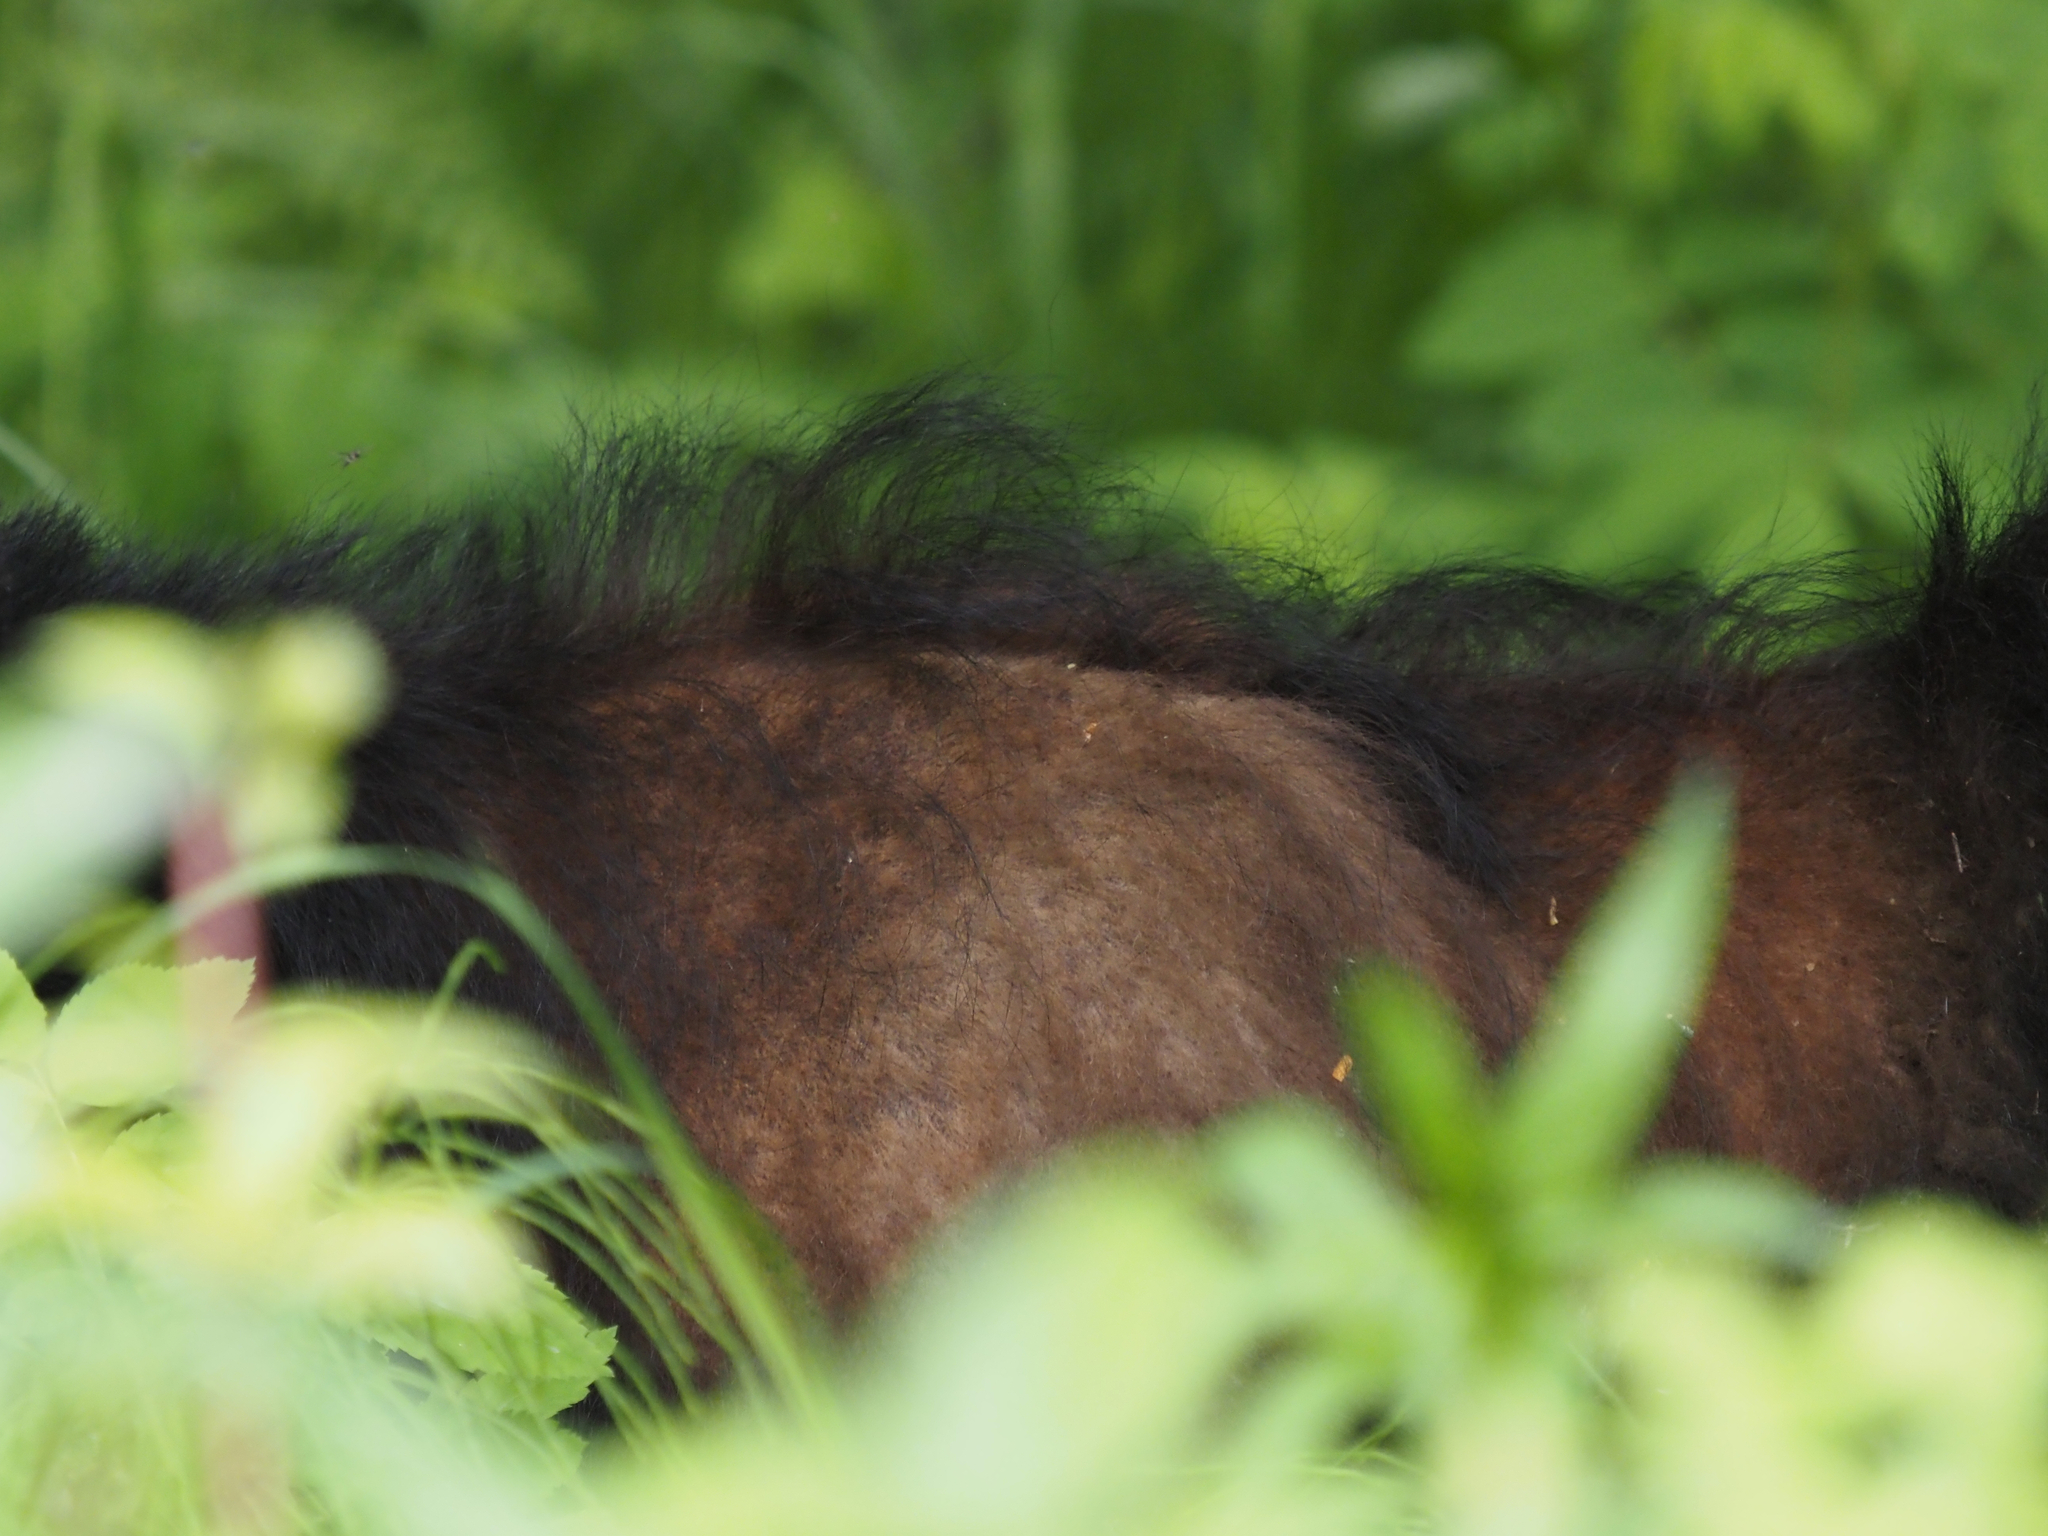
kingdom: Animalia
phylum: Chordata
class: Mammalia
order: Carnivora
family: Ursidae
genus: Ursus
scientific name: Ursus americanus
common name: American black bear
